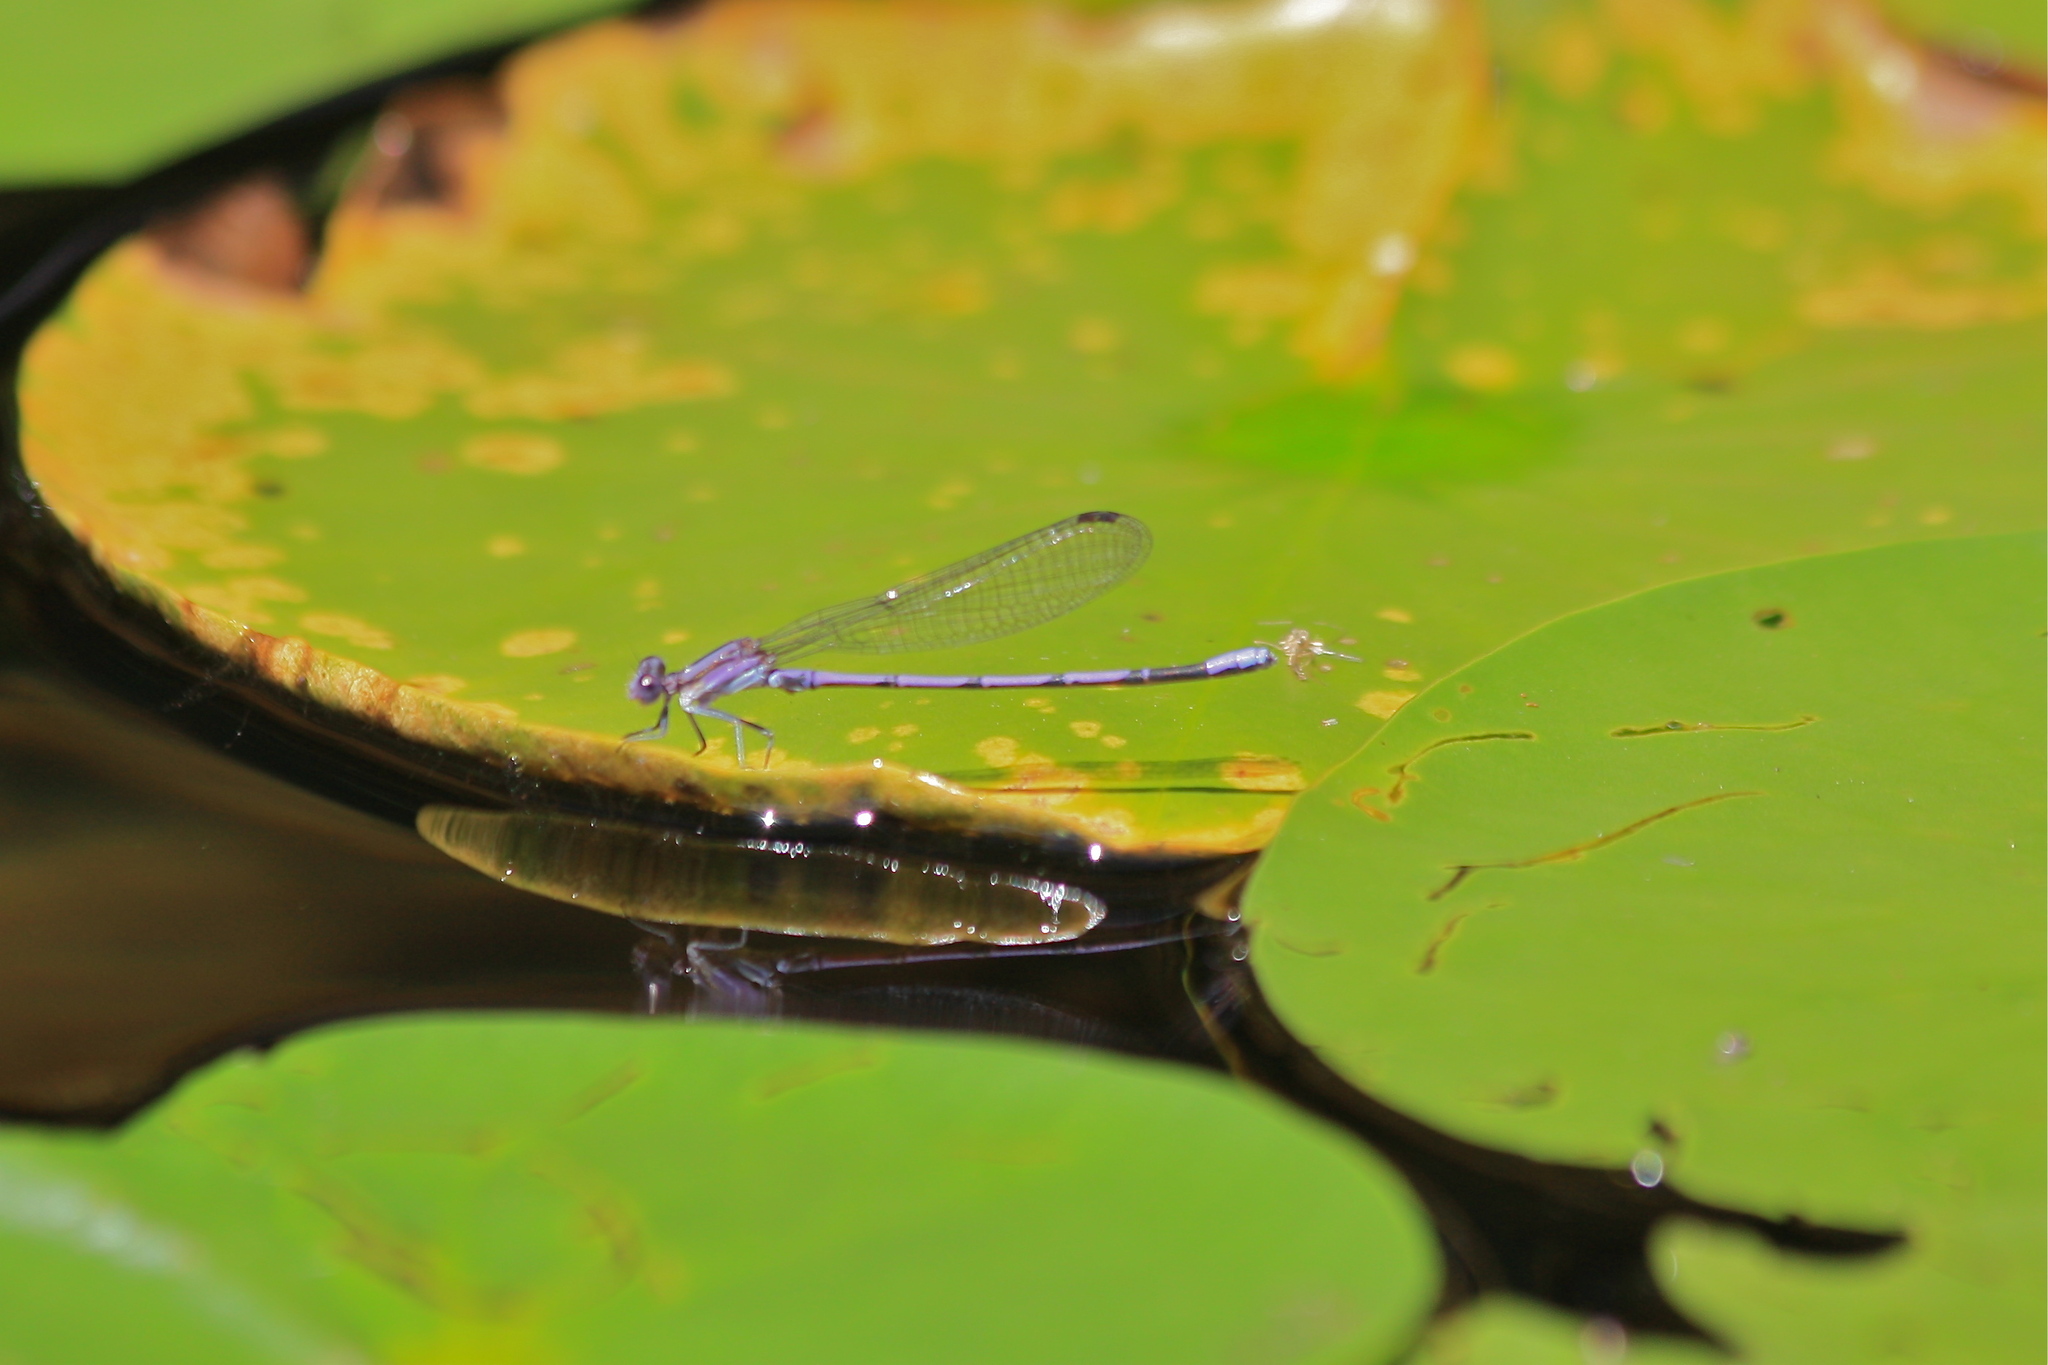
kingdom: Animalia
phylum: Arthropoda
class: Insecta
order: Odonata
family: Coenagrionidae
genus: Argia
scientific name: Argia fumipennis
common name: Variable dancer
